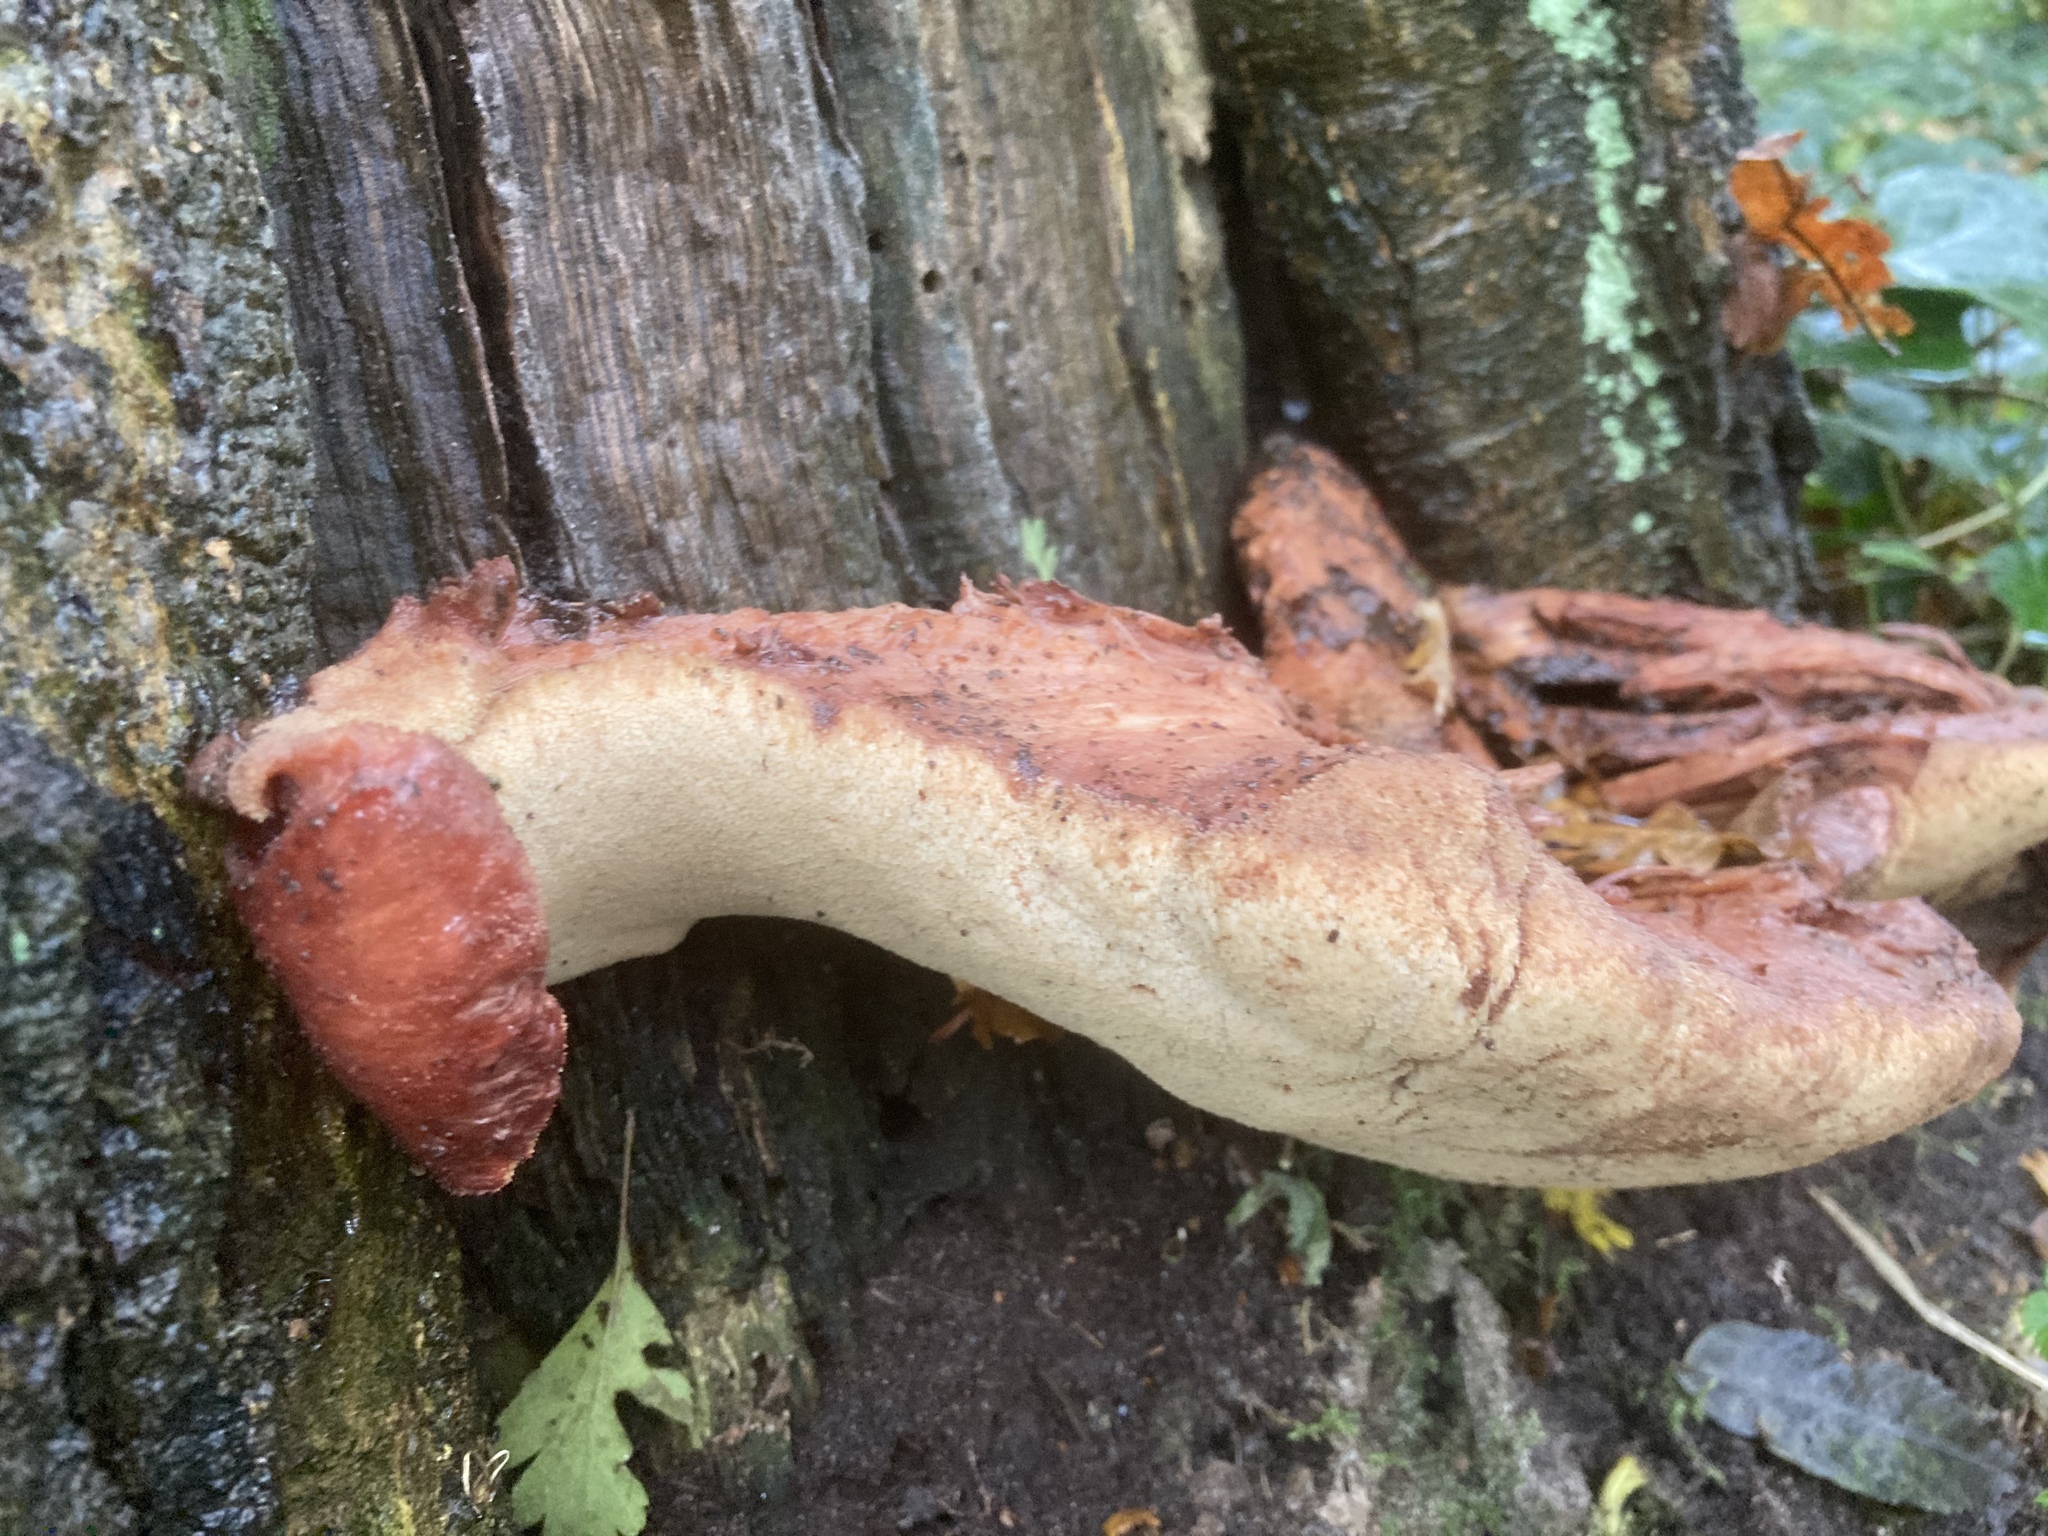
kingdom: Fungi
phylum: Basidiomycota
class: Agaricomycetes
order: Agaricales
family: Fistulinaceae
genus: Fistulina
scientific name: Fistulina hepatica
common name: Beef-steak fungus
